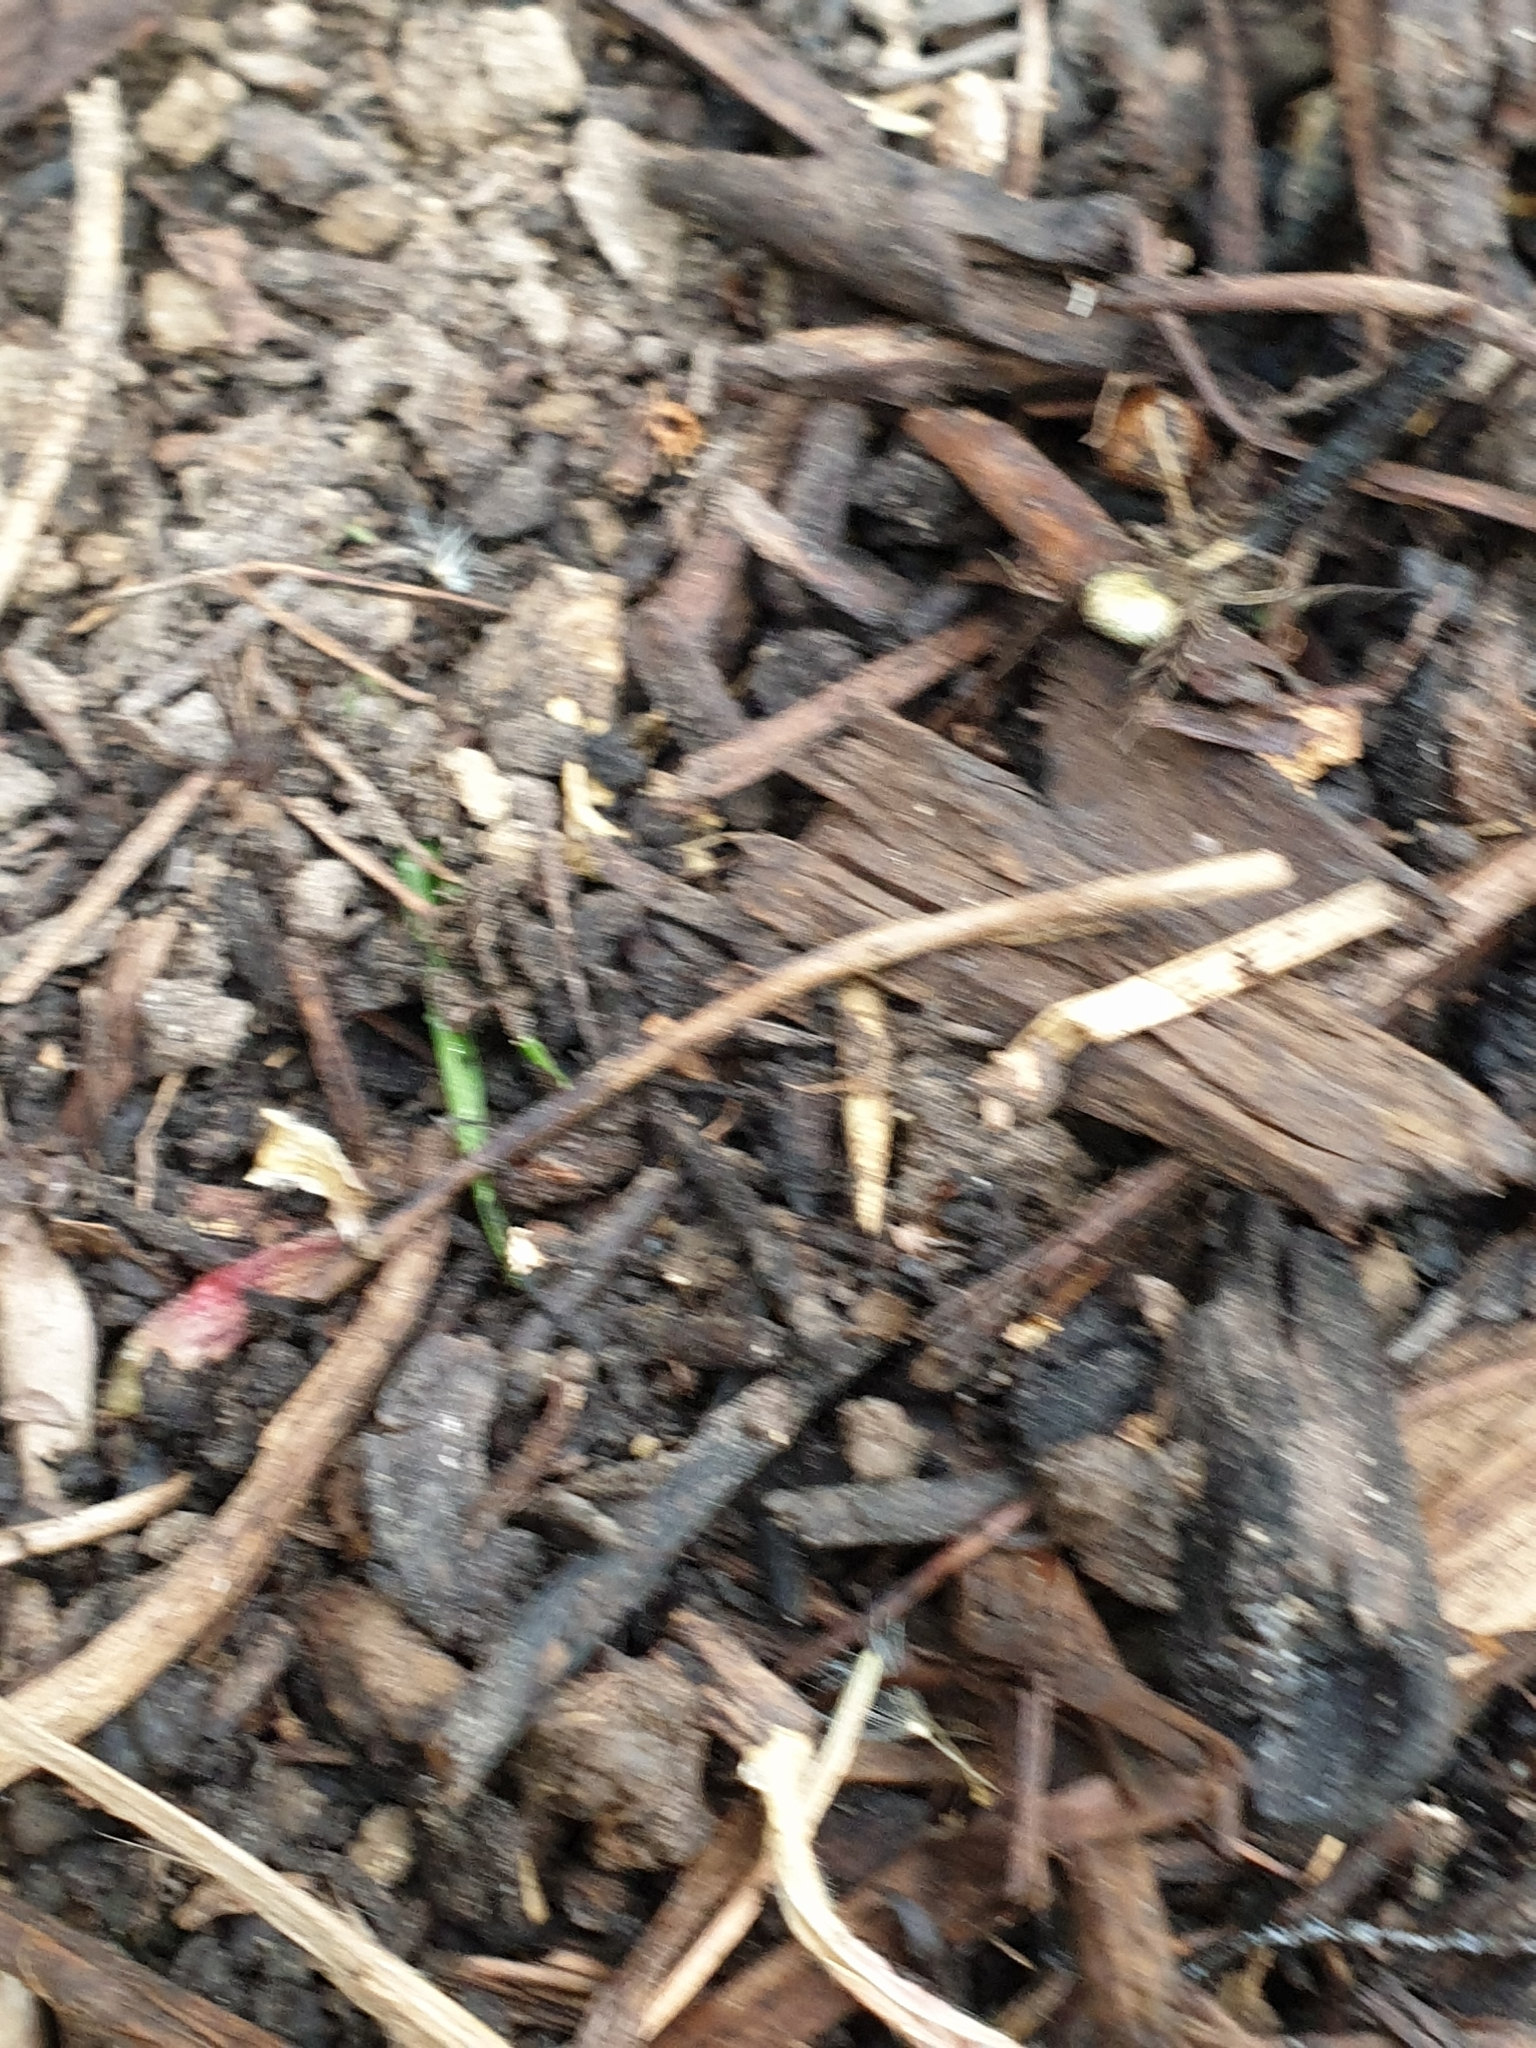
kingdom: Animalia
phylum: Arthropoda
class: Arachnida
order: Araneae
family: Lycosidae
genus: Pardosa
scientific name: Pardosa
